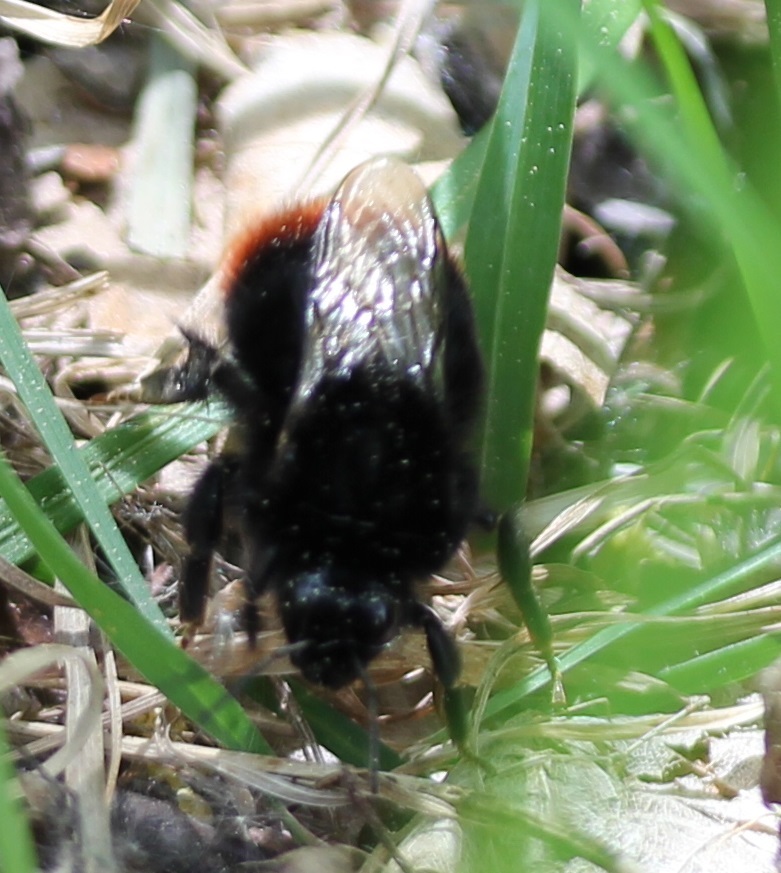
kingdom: Animalia
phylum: Arthropoda
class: Insecta
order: Hymenoptera
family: Apidae
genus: Bombus
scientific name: Bombus lapidarius
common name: Large red-tailed humble-bee
